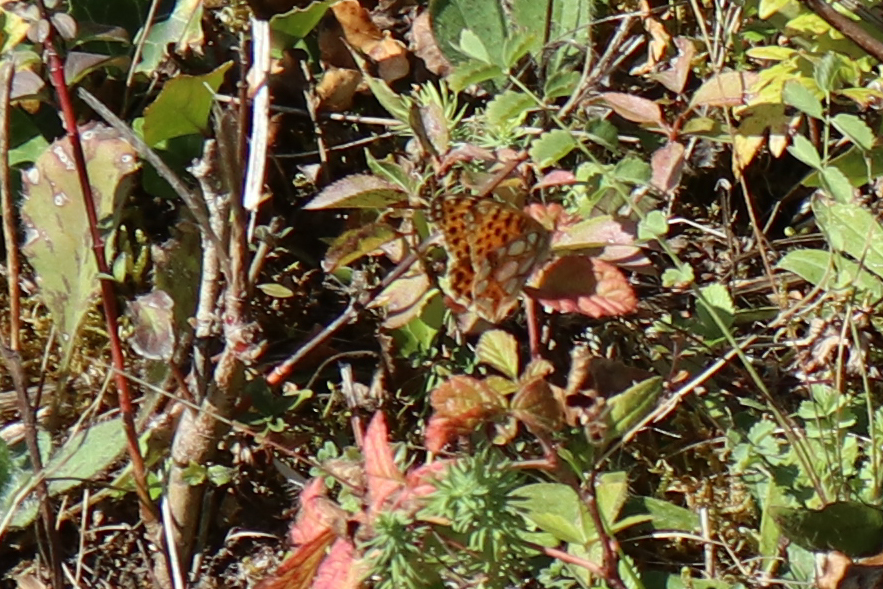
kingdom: Animalia
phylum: Arthropoda
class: Insecta
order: Lepidoptera
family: Nymphalidae
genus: Issoria
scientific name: Issoria lathonia
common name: Queen of spain fritillary
